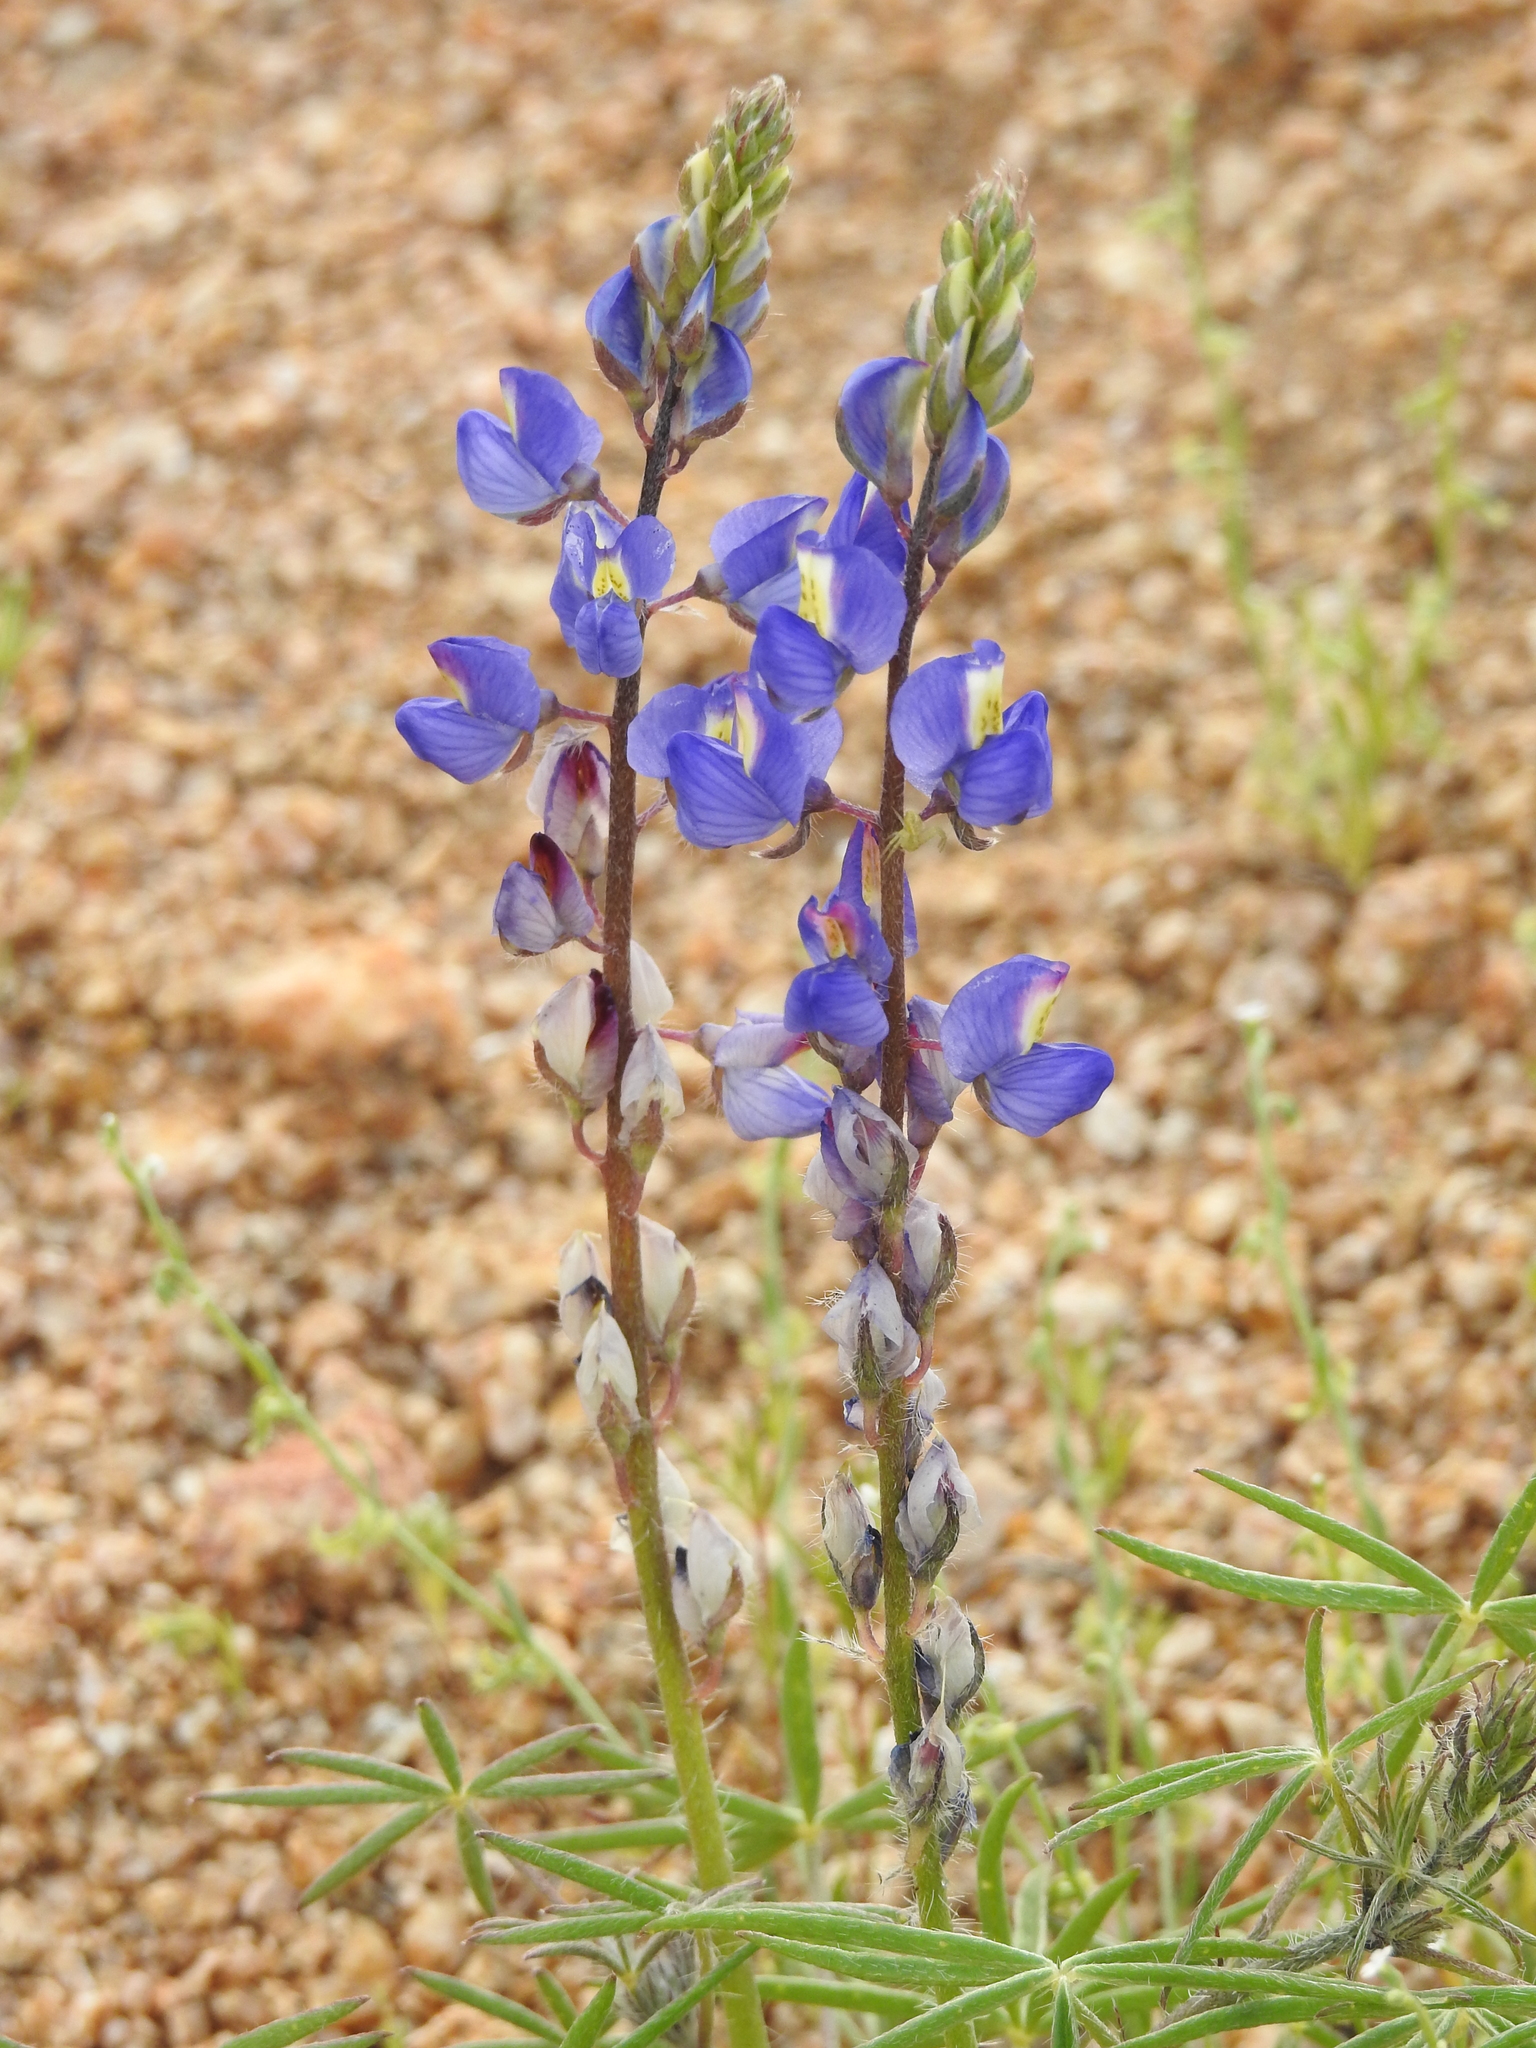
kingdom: Plantae
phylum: Tracheophyta
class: Magnoliopsida
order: Fabales
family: Fabaceae
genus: Lupinus
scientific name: Lupinus sparsiflorus
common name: Coulter's lupine
